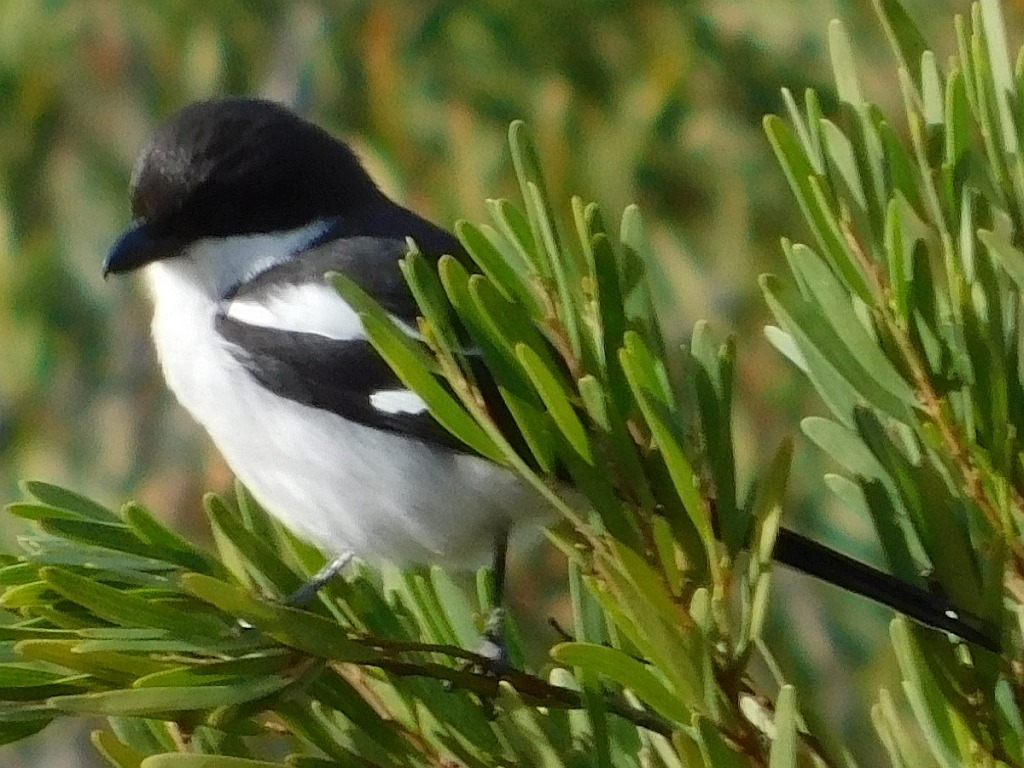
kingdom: Animalia
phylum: Chordata
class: Aves
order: Passeriformes
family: Laniidae
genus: Lanius
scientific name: Lanius collaris
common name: Southern fiscal
